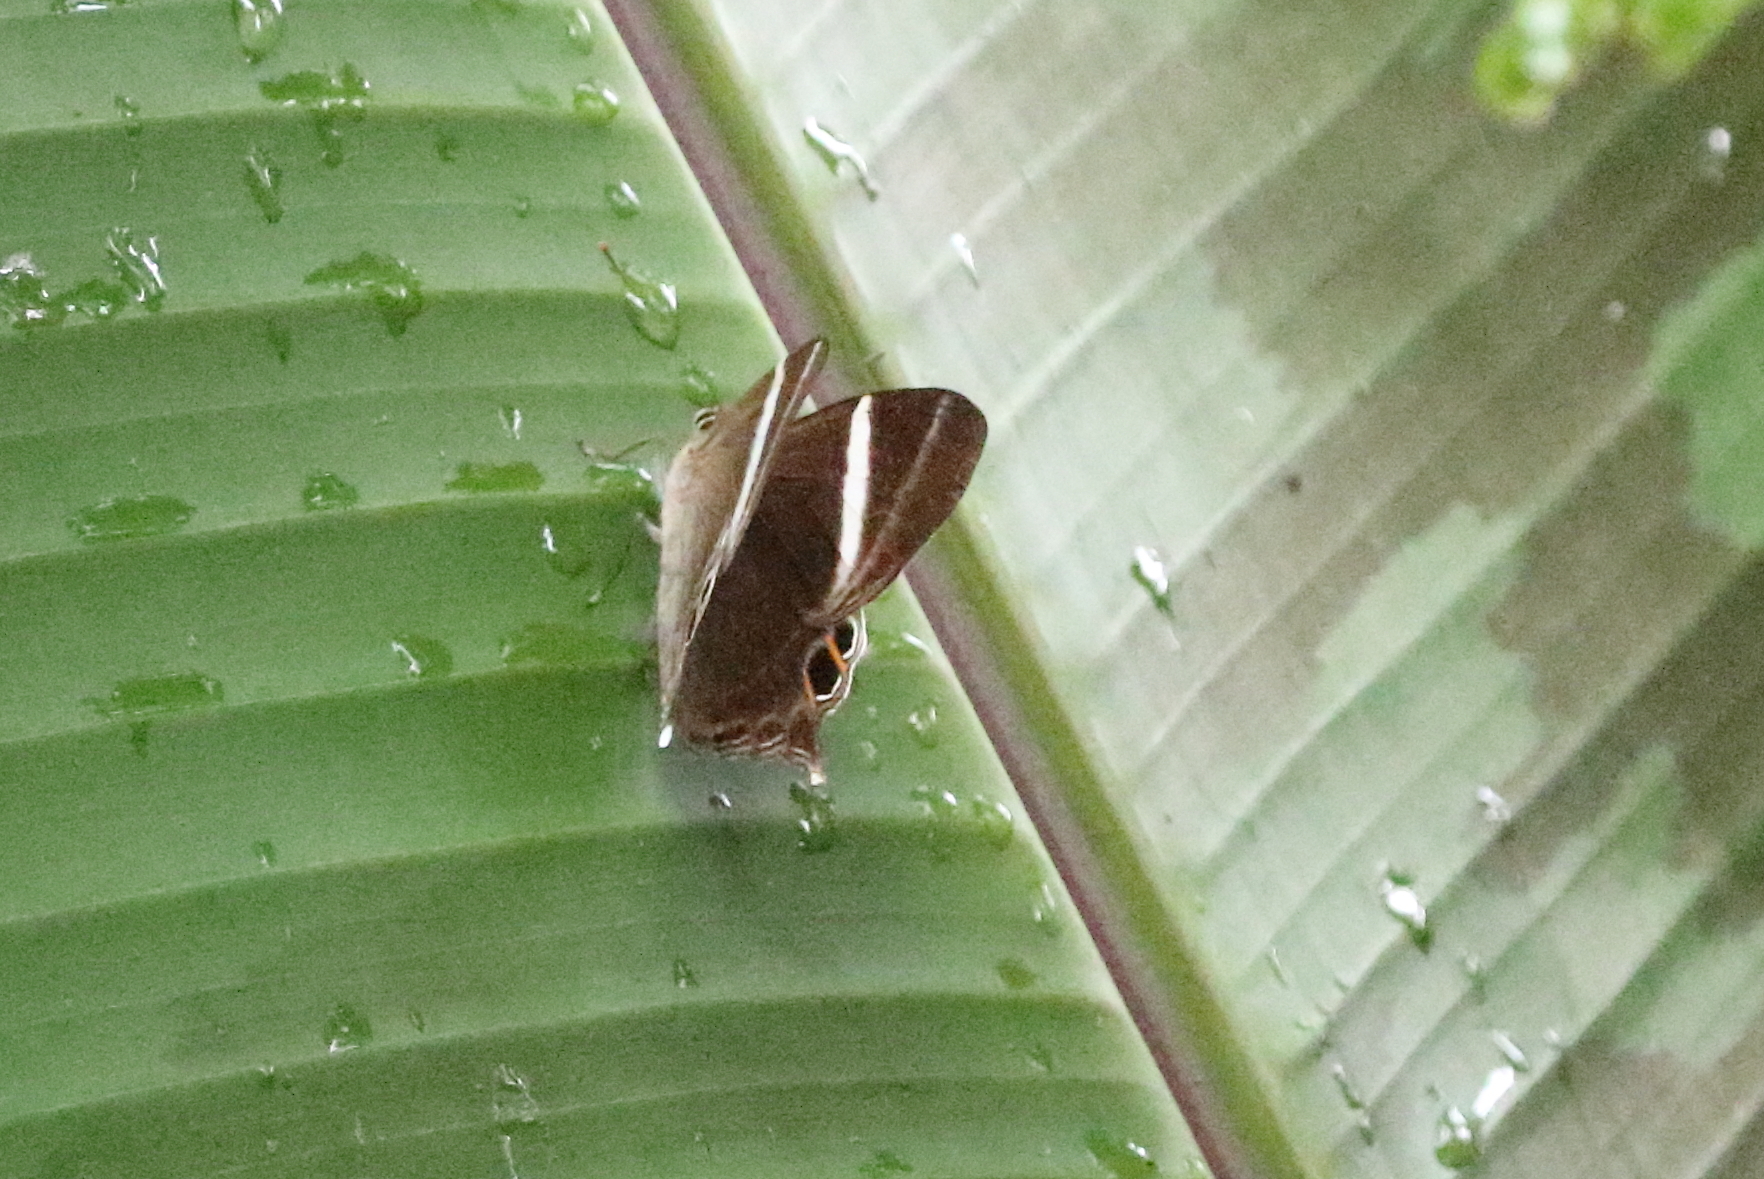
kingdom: Animalia
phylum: Arthropoda
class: Insecta
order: Lepidoptera
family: Lycaenidae
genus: Abisara
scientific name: Abisara neophron
